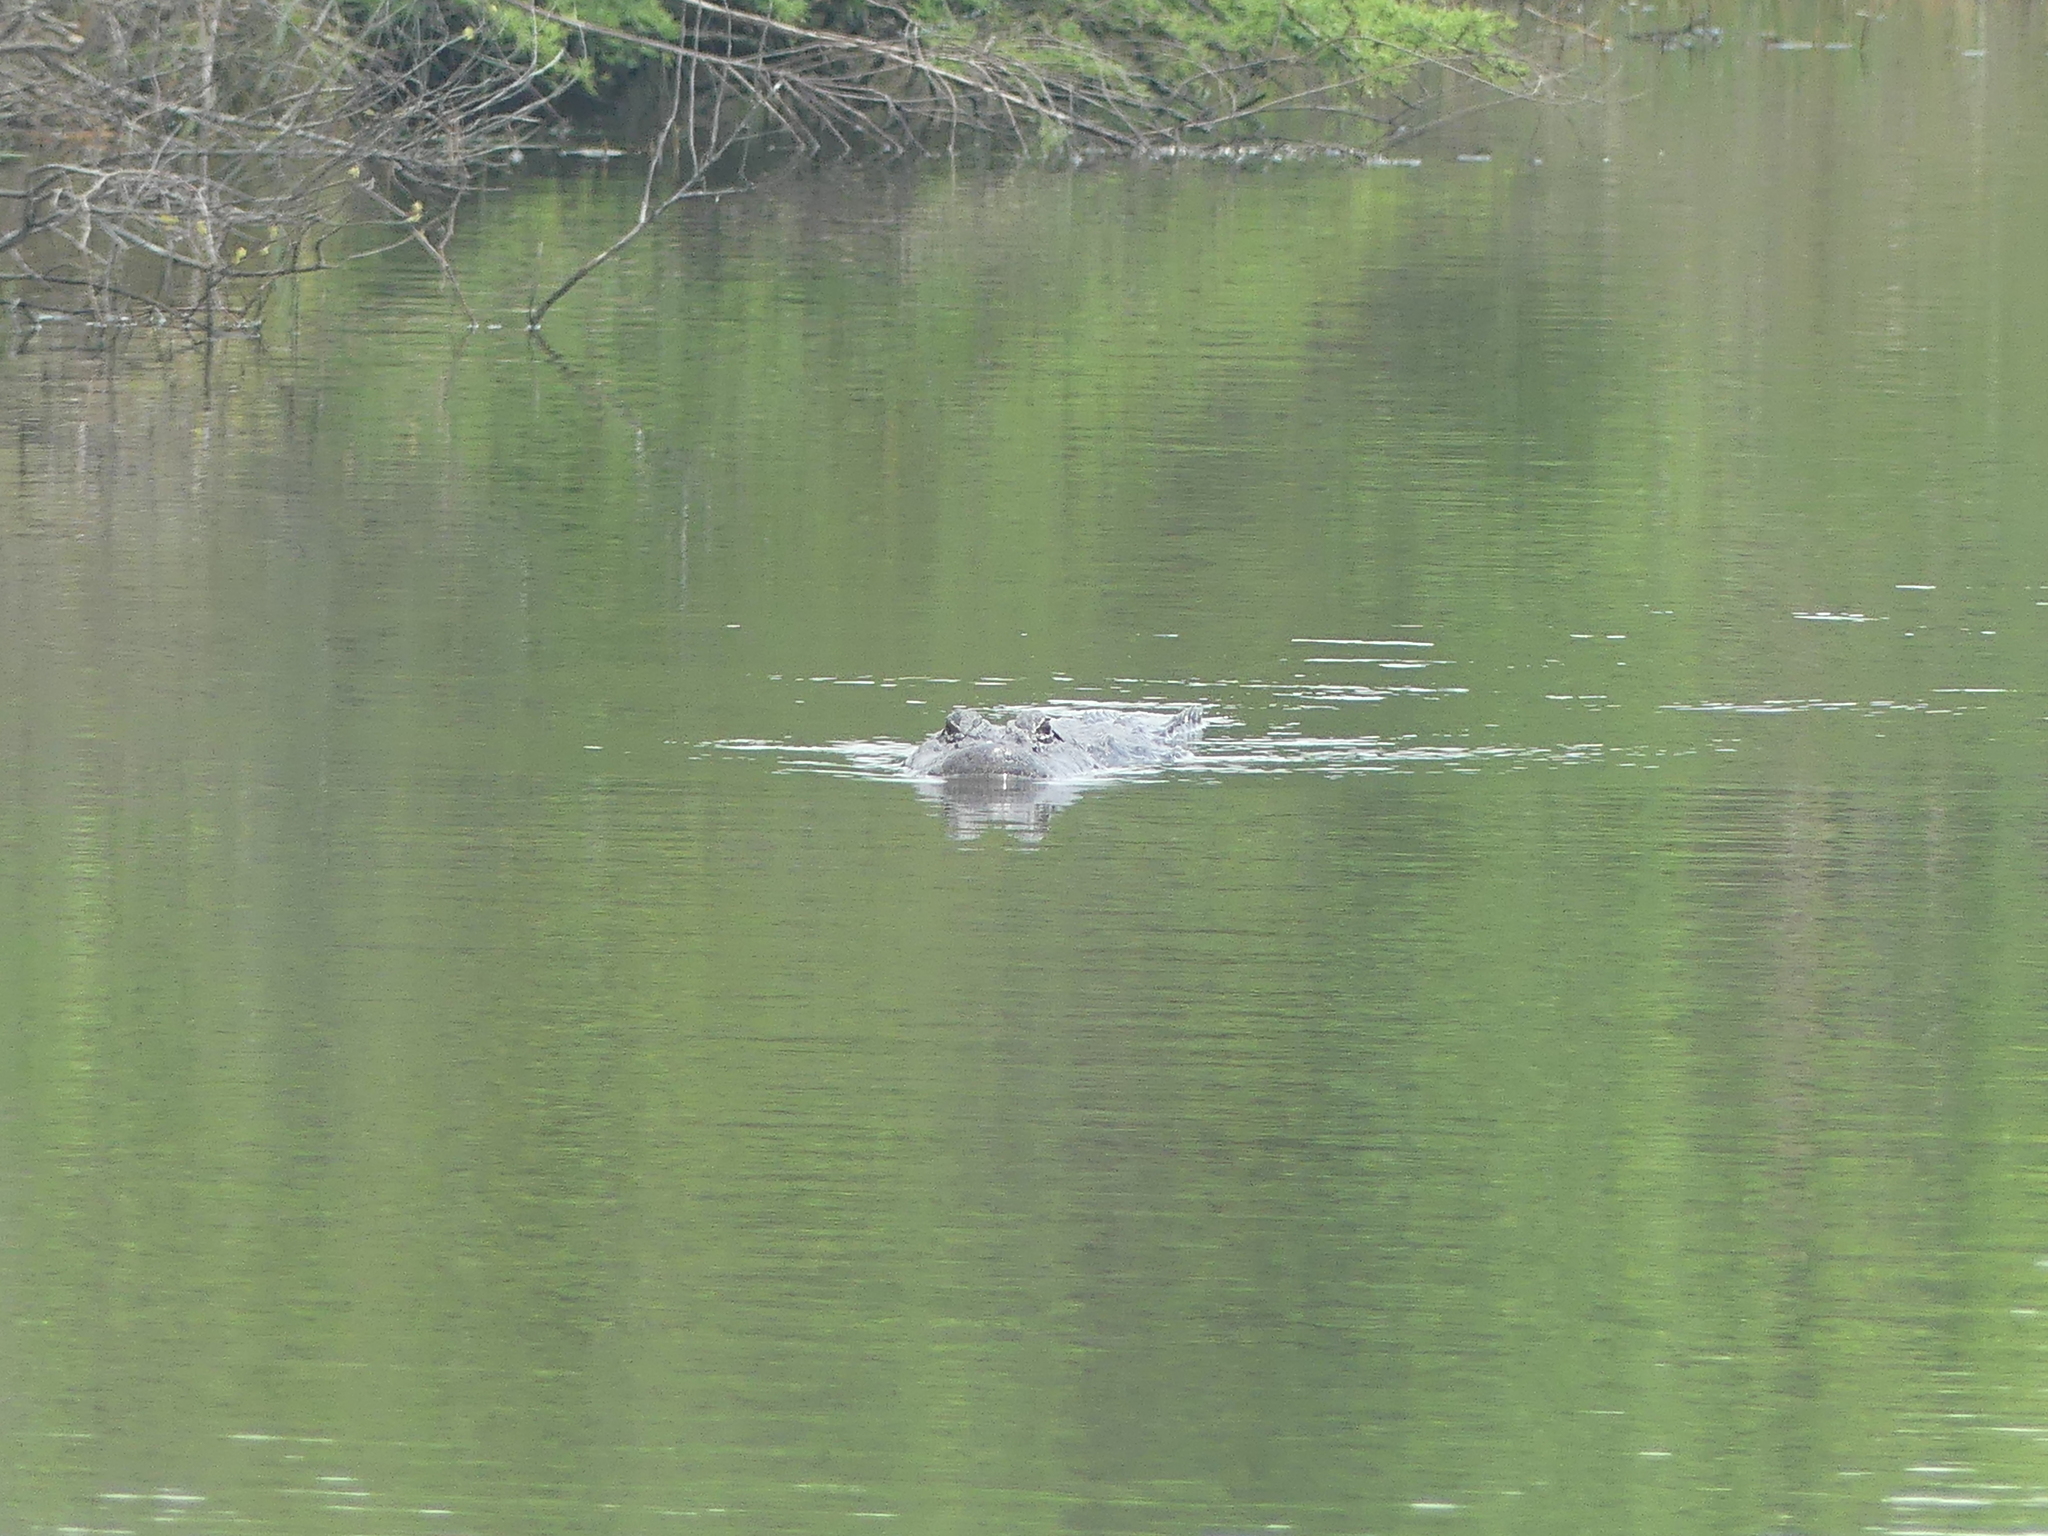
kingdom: Animalia
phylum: Chordata
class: Crocodylia
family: Alligatoridae
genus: Alligator
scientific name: Alligator mississippiensis
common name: American alligator
